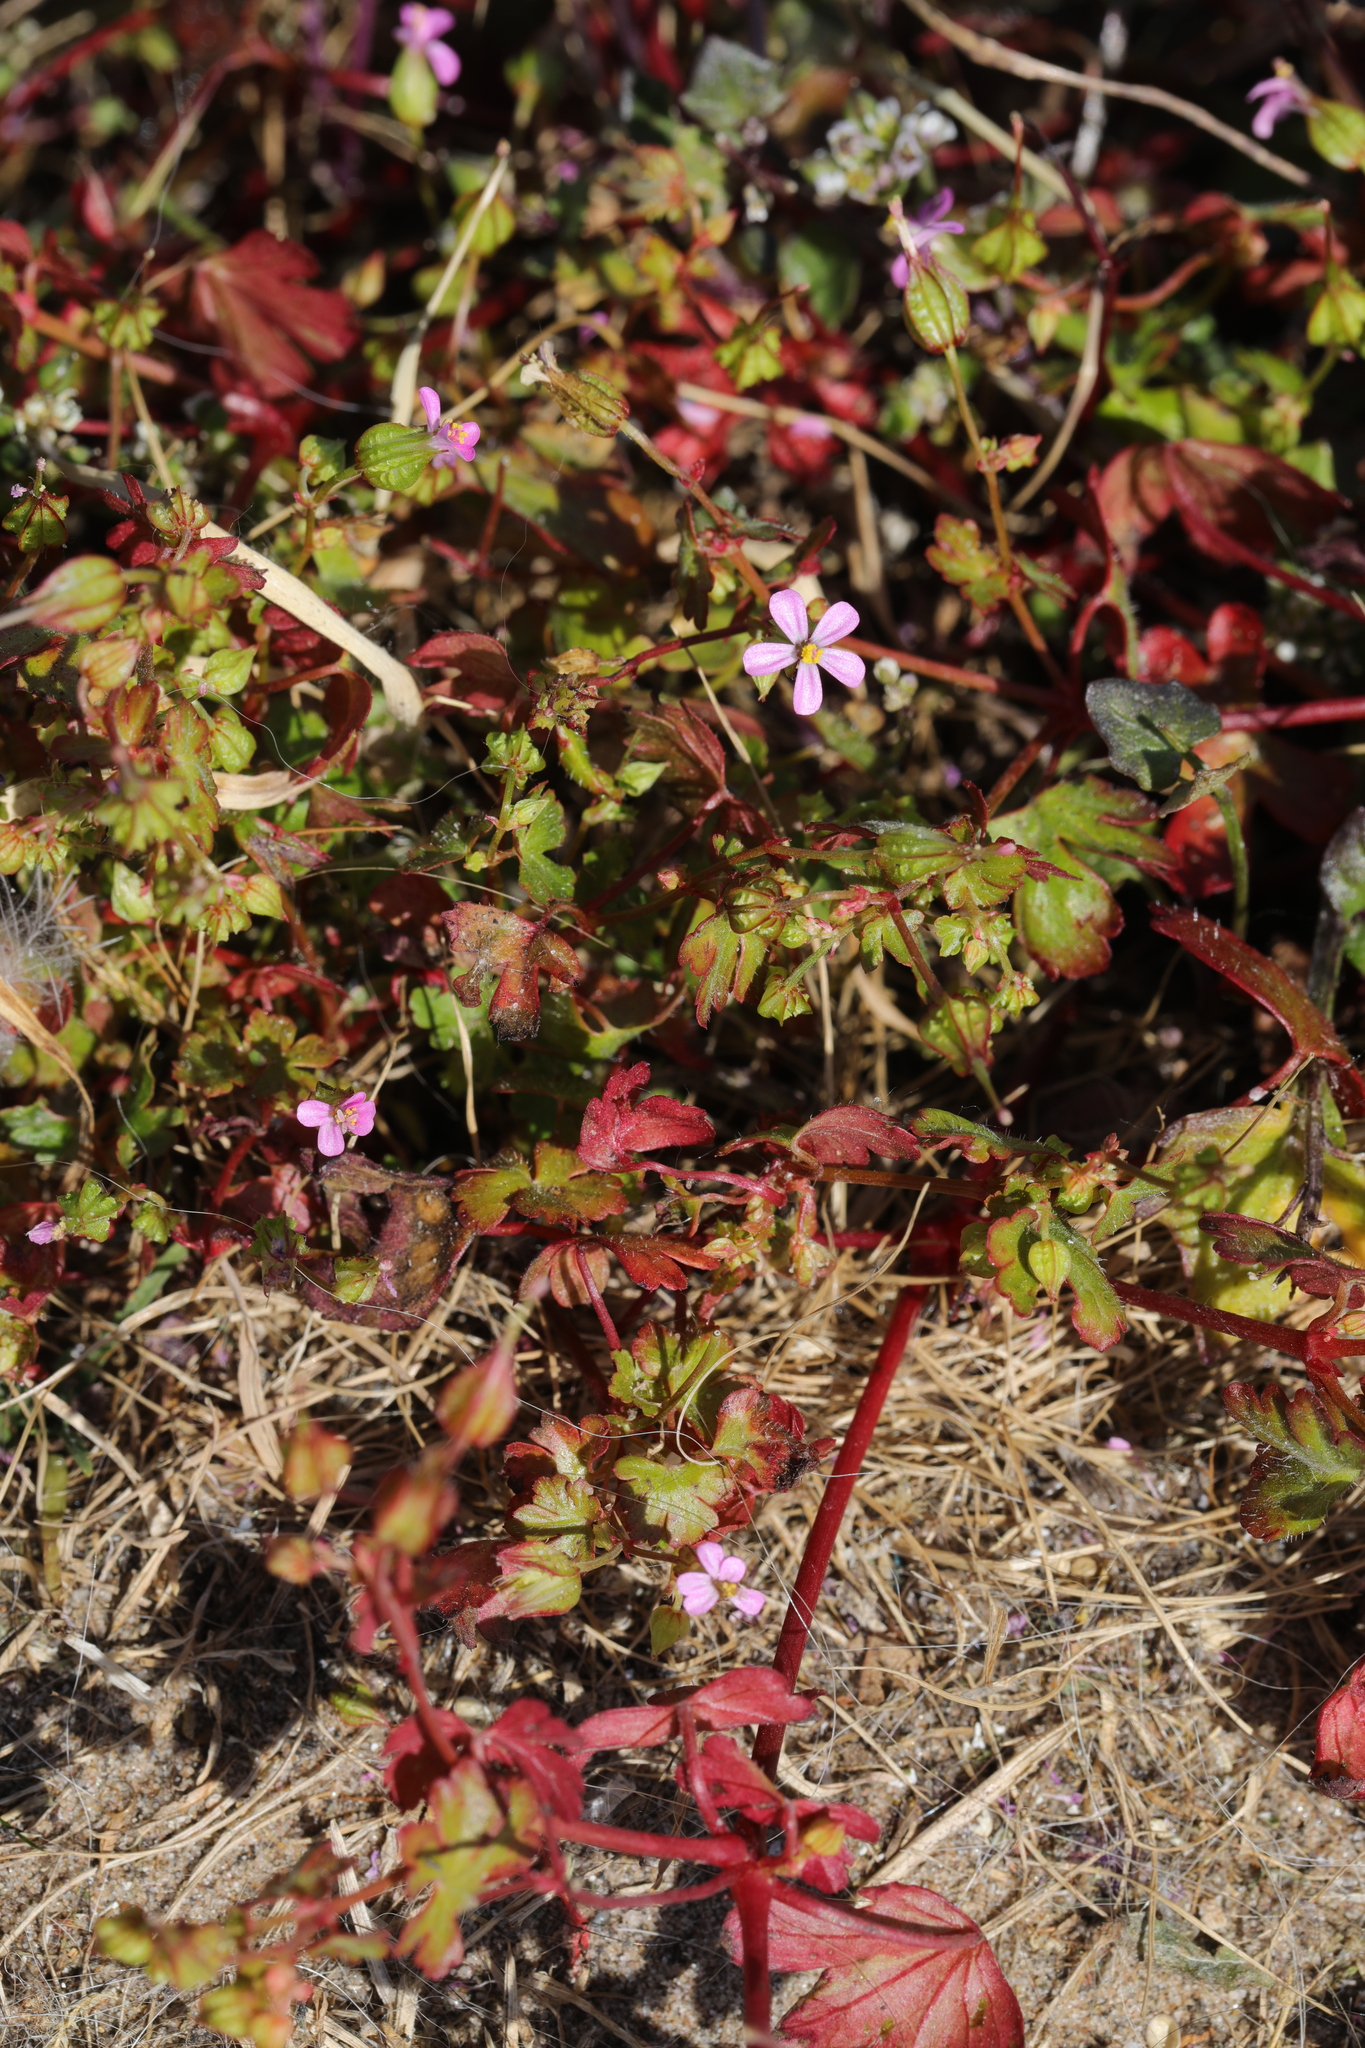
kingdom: Plantae
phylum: Tracheophyta
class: Magnoliopsida
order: Geraniales
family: Geraniaceae
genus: Geranium
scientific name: Geranium robertianum
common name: Herb-robert
